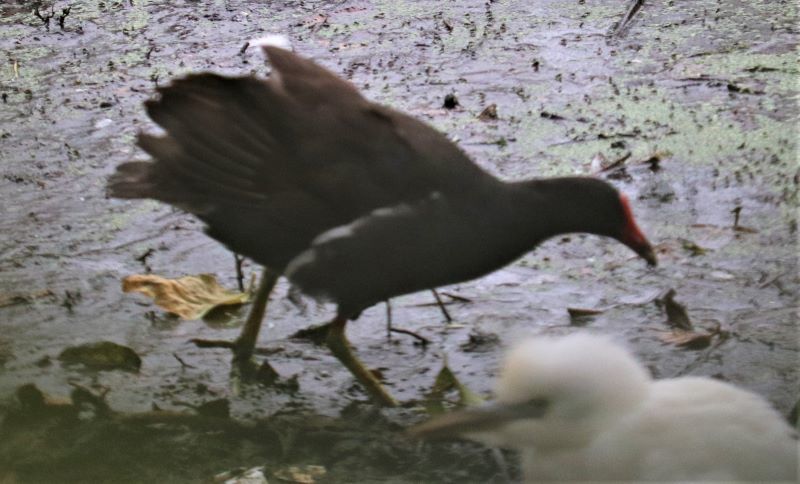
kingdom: Animalia
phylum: Chordata
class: Aves
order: Gruiformes
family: Rallidae
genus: Gallinula
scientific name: Gallinula chloropus
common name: Common moorhen
